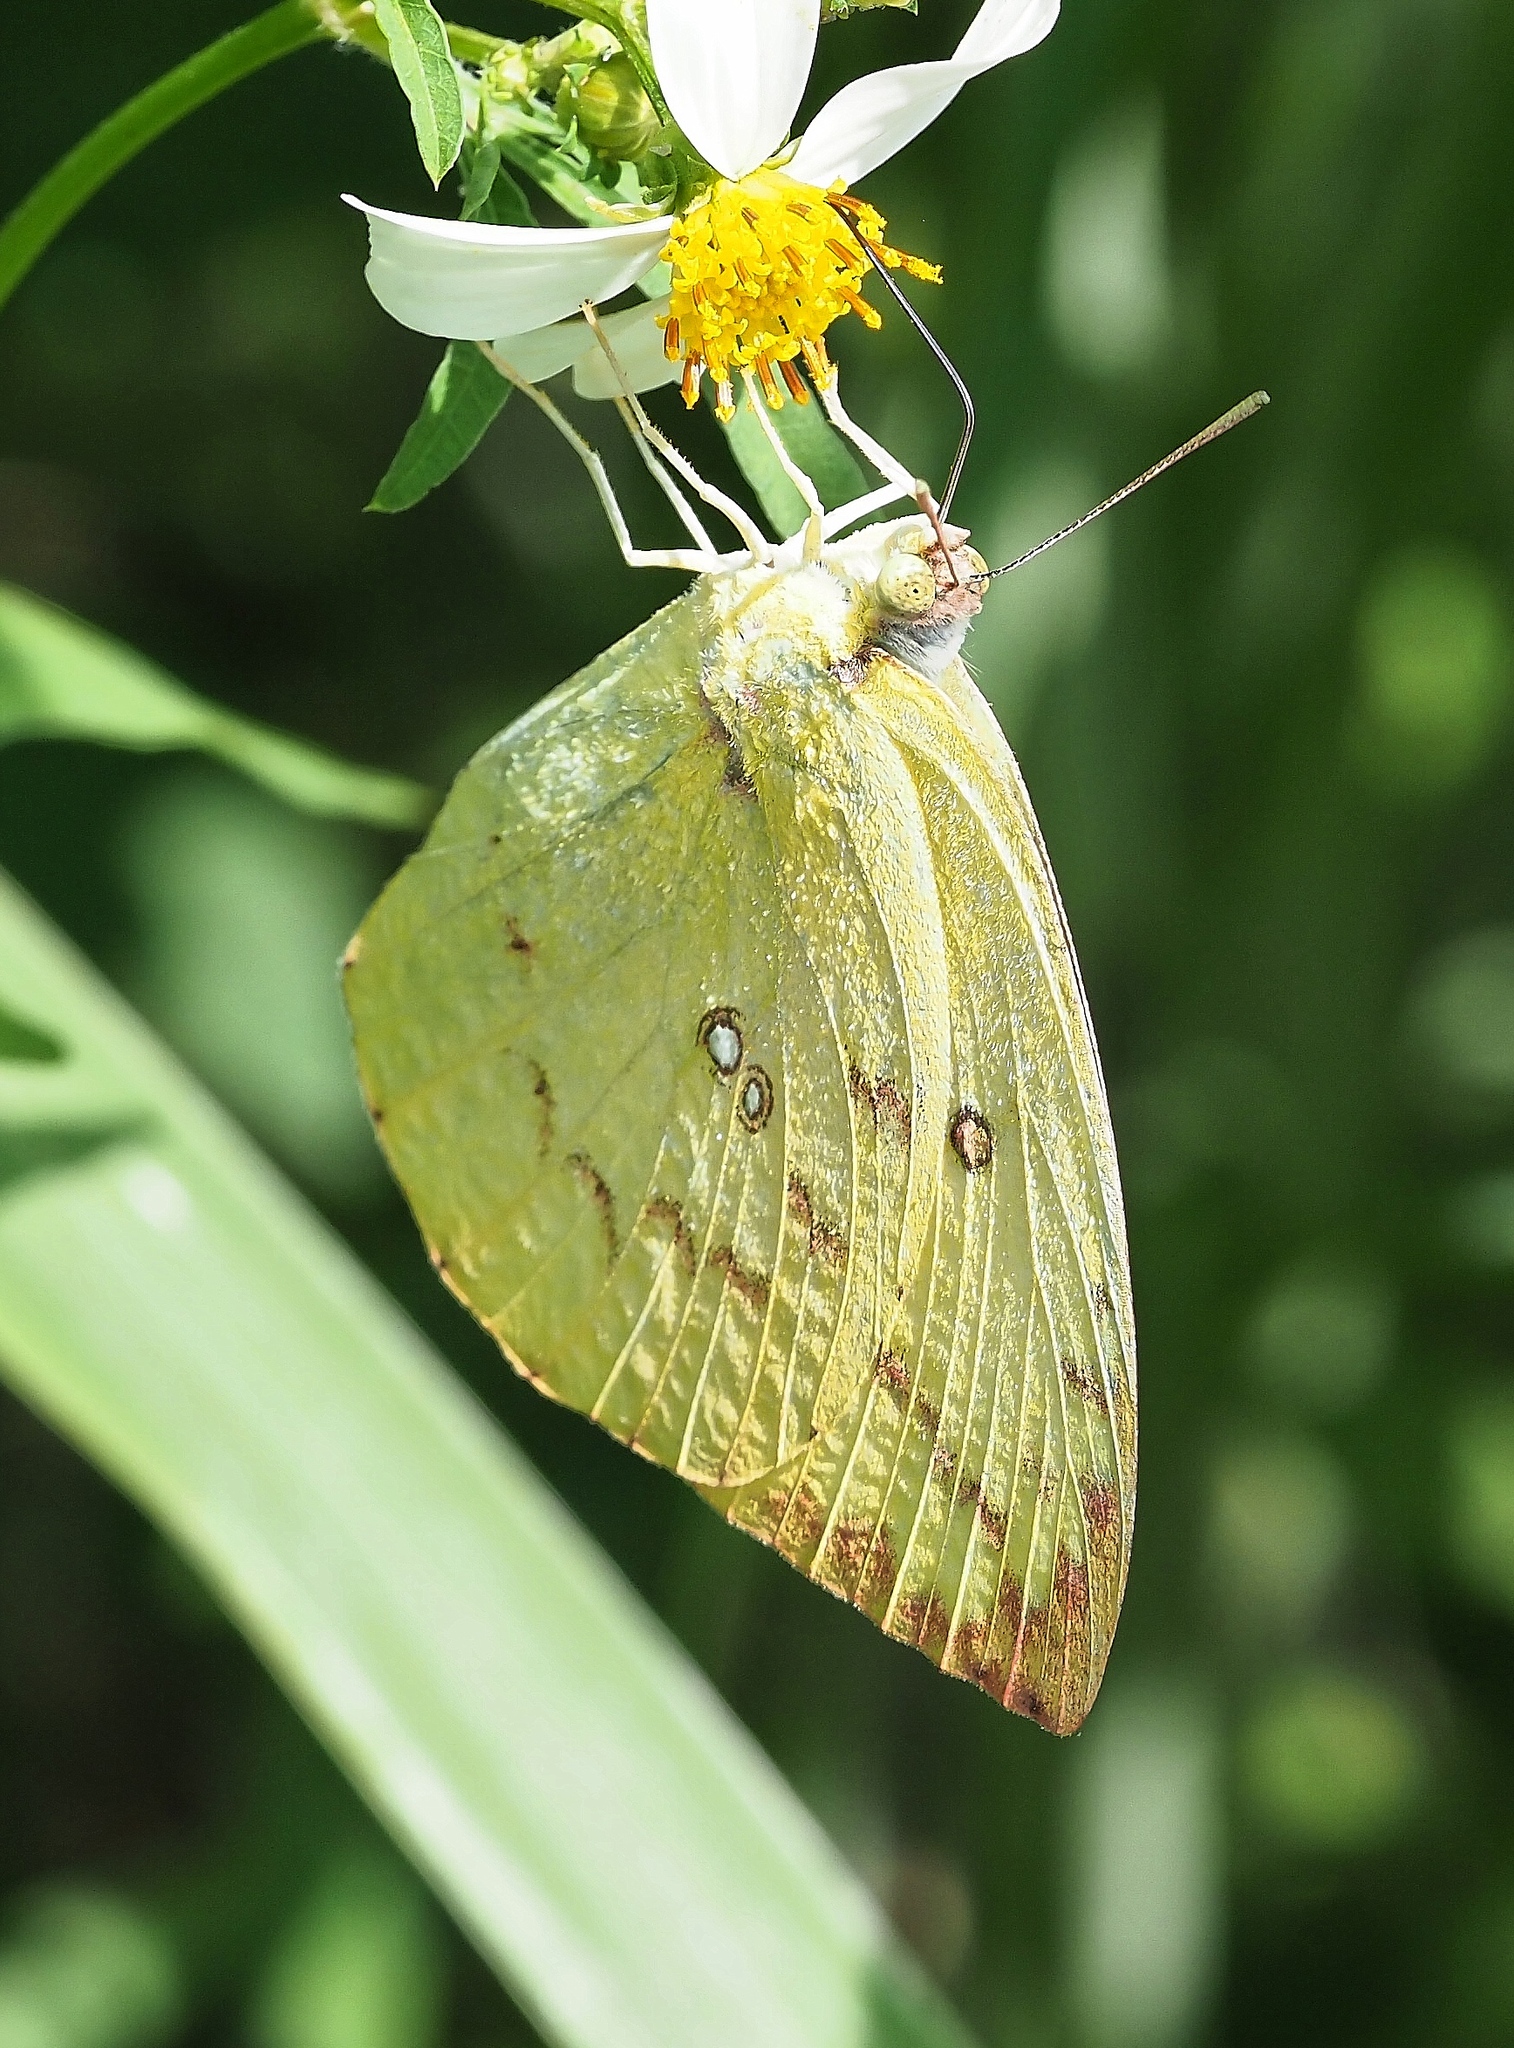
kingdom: Animalia
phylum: Arthropoda
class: Insecta
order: Lepidoptera
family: Pieridae
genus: Catopsilia
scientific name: Catopsilia pomona
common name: Common emigrant
